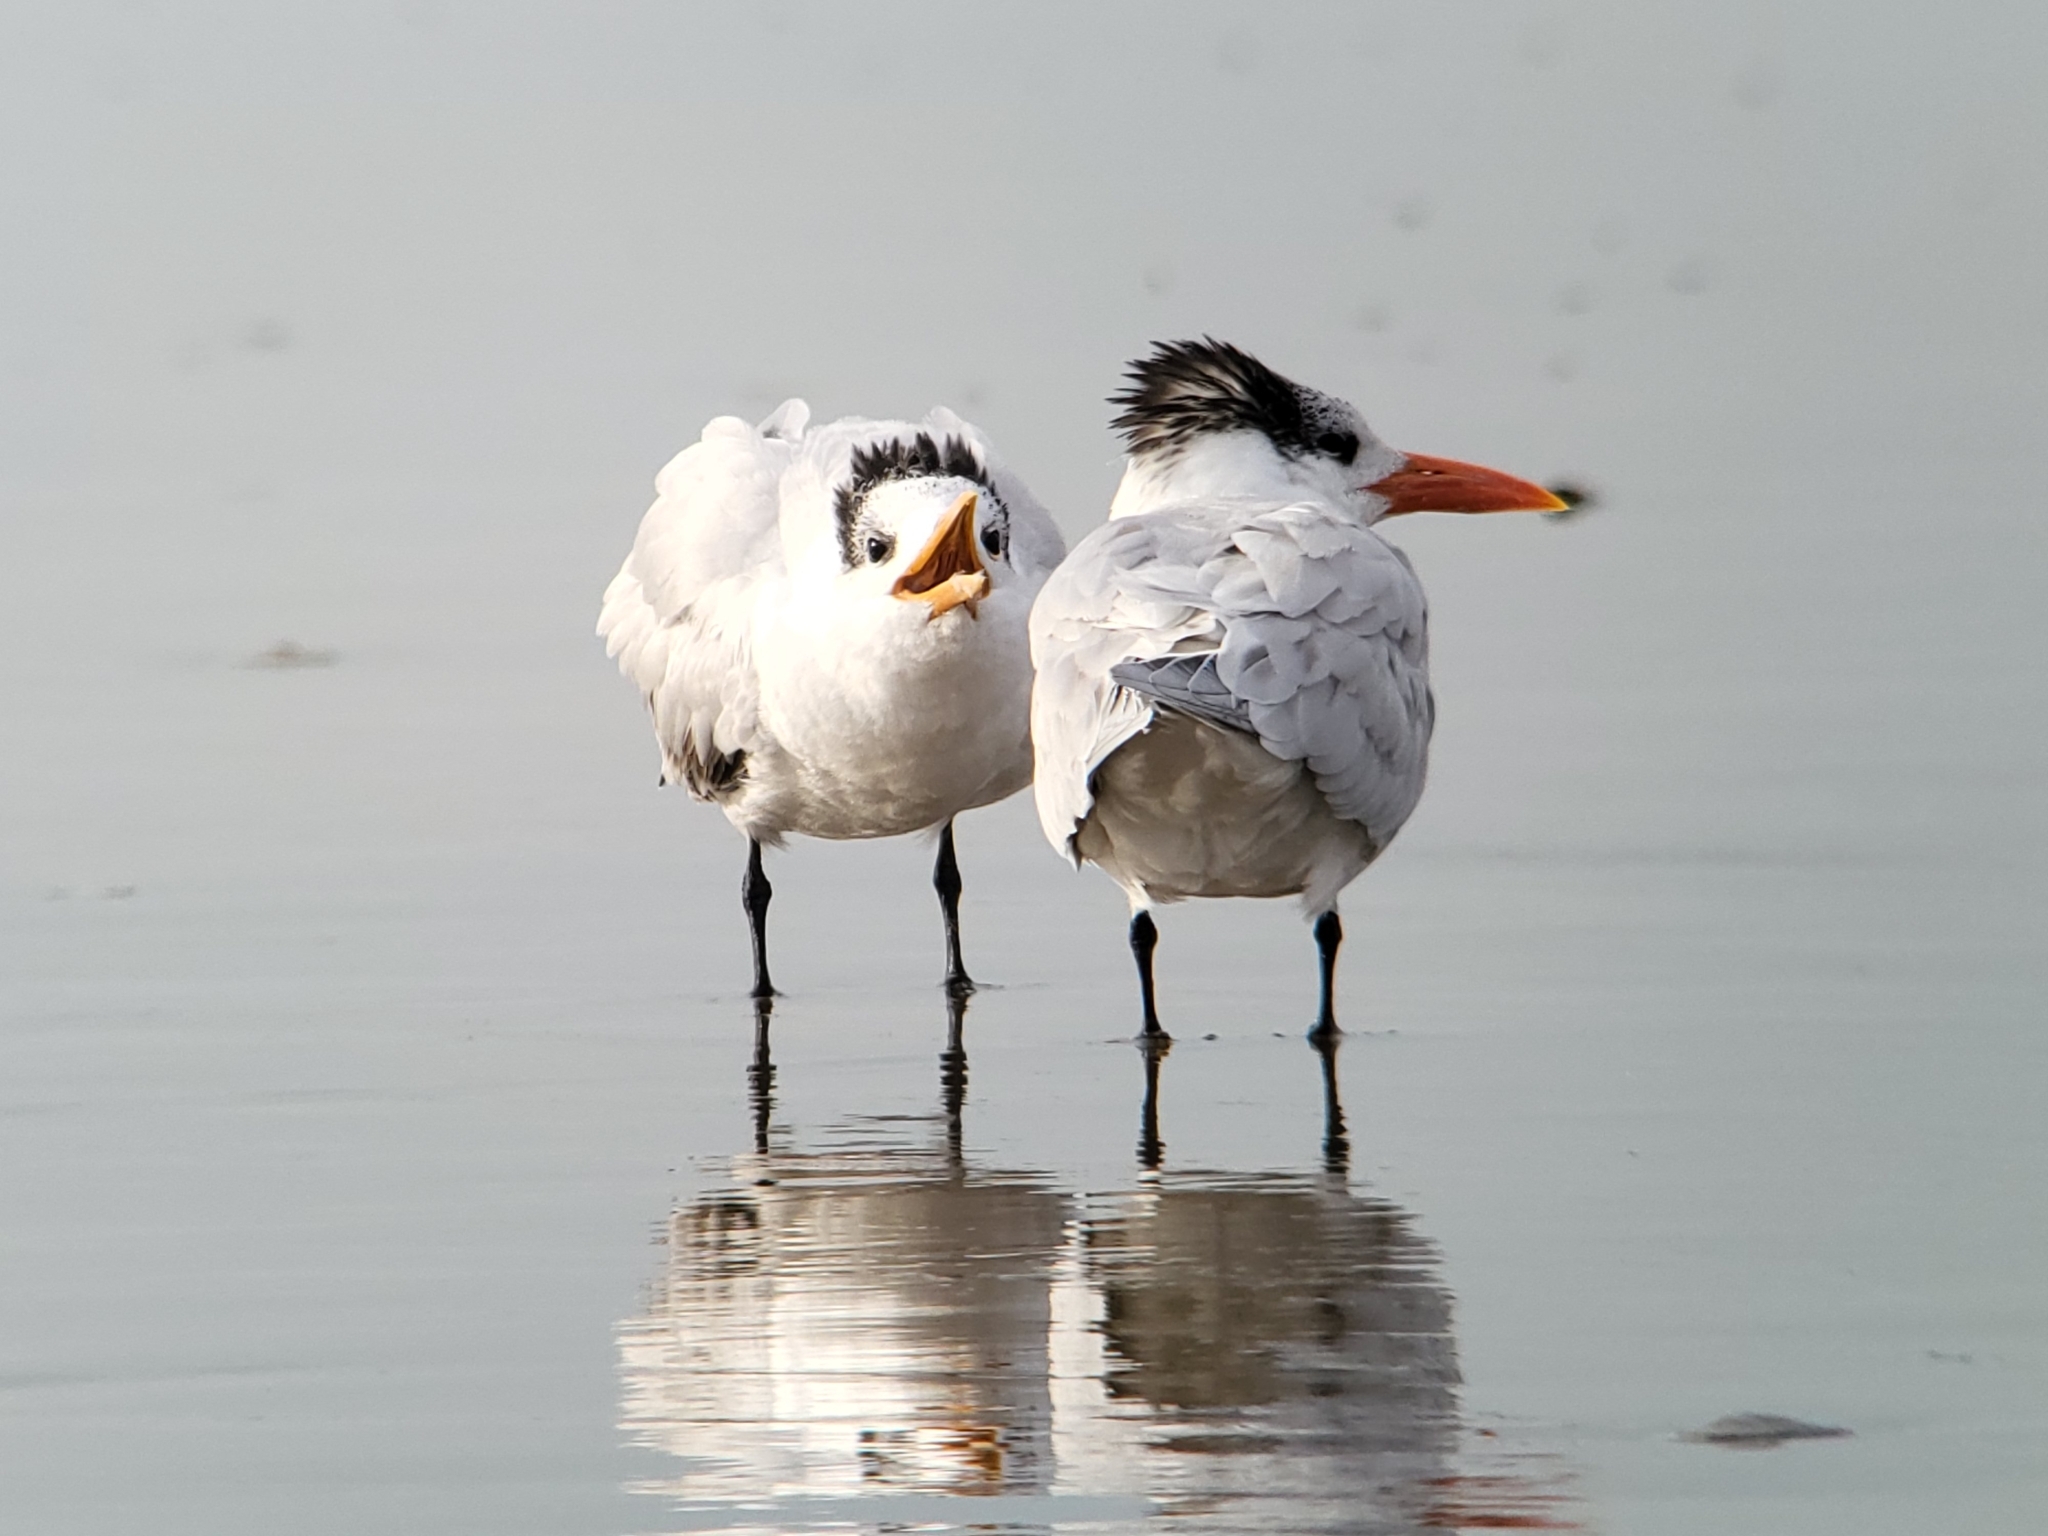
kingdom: Animalia
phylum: Chordata
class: Aves
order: Charadriiformes
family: Laridae
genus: Thalasseus
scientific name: Thalasseus maximus
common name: Royal tern
